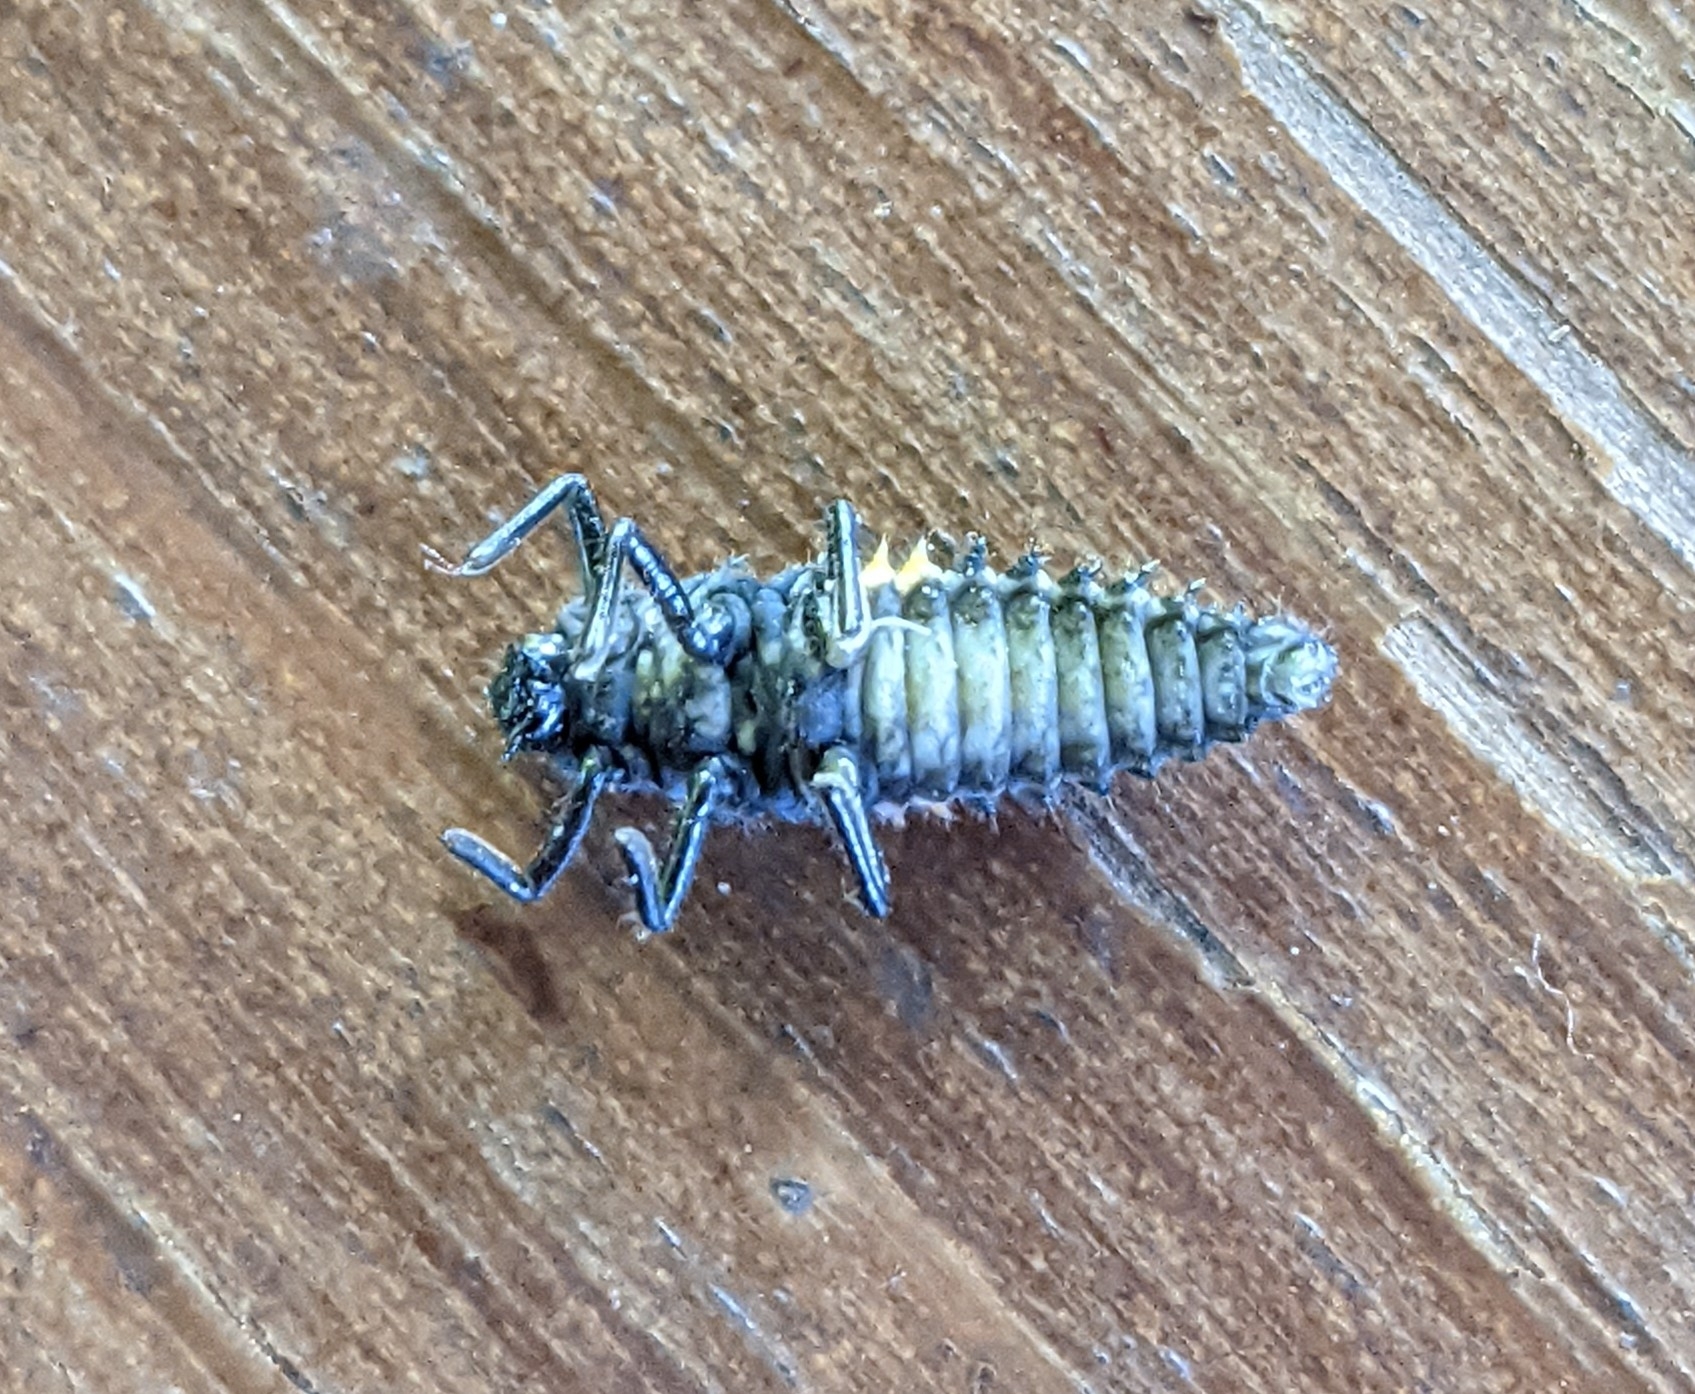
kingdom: Animalia
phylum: Arthropoda
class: Insecta
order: Coleoptera
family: Coccinellidae
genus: Anatis
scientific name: Anatis ocellata
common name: Eyed ladybird
